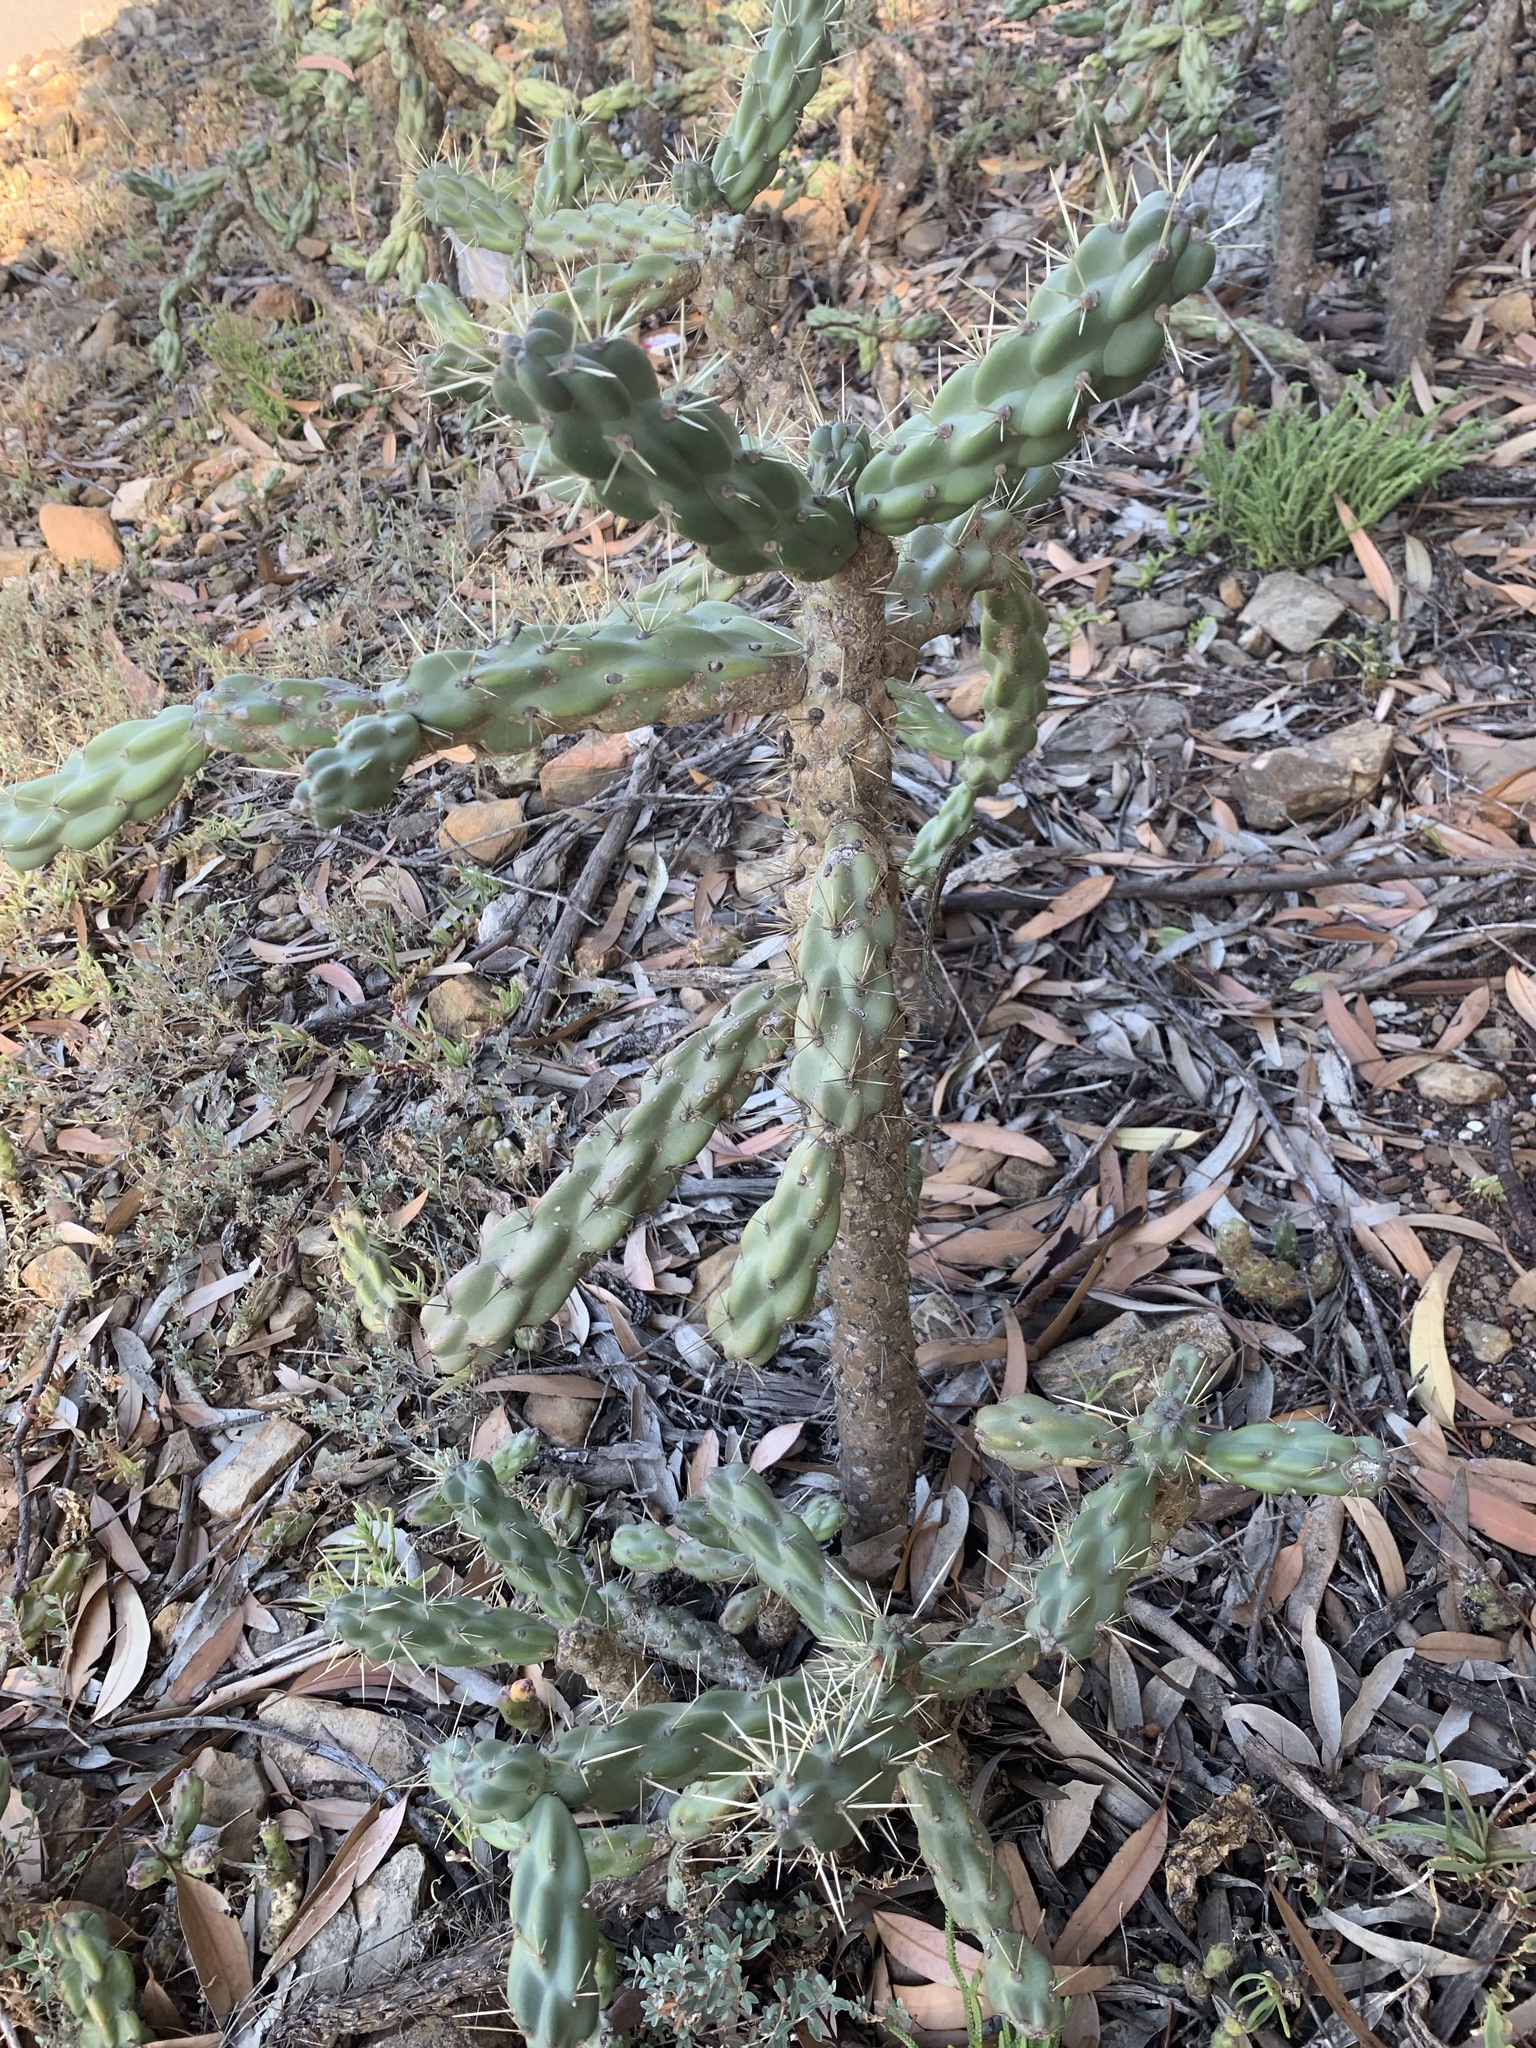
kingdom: Plantae
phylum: Tracheophyta
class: Magnoliopsida
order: Caryophyllales
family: Cactaceae
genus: Cylindropuntia
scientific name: Cylindropuntia imbricata
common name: Candelabrum cactus
